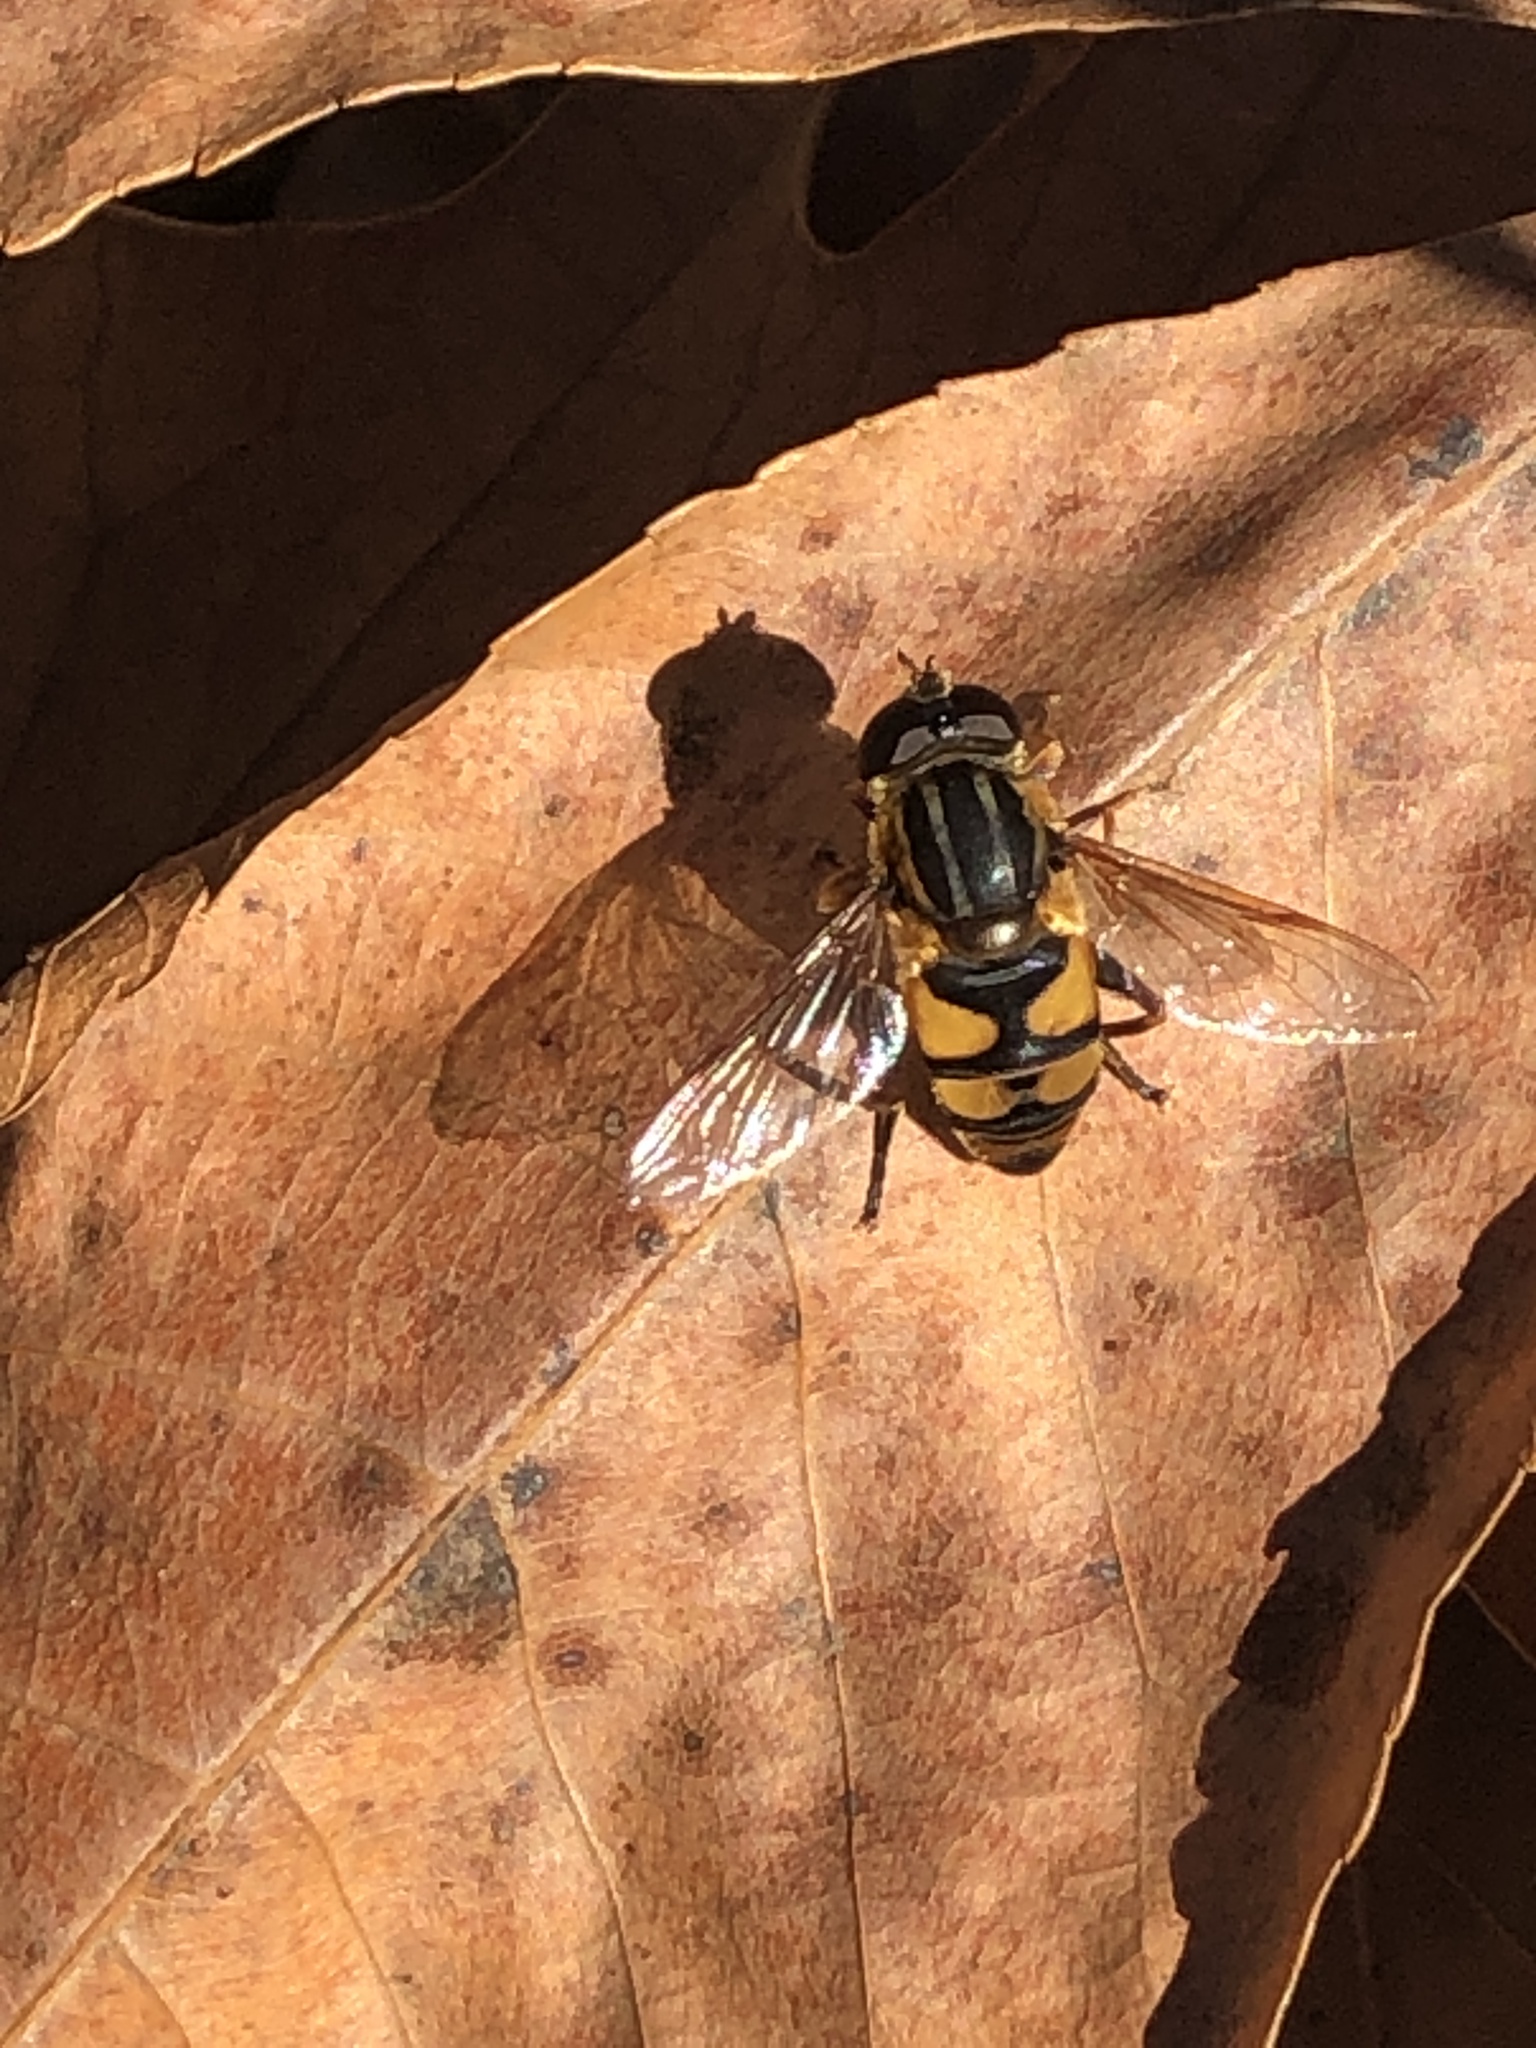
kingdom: Animalia
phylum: Arthropoda
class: Insecta
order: Diptera
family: Syrphidae
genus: Helophilus
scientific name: Helophilus fasciatus
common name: Narrow-headed marsh fly
